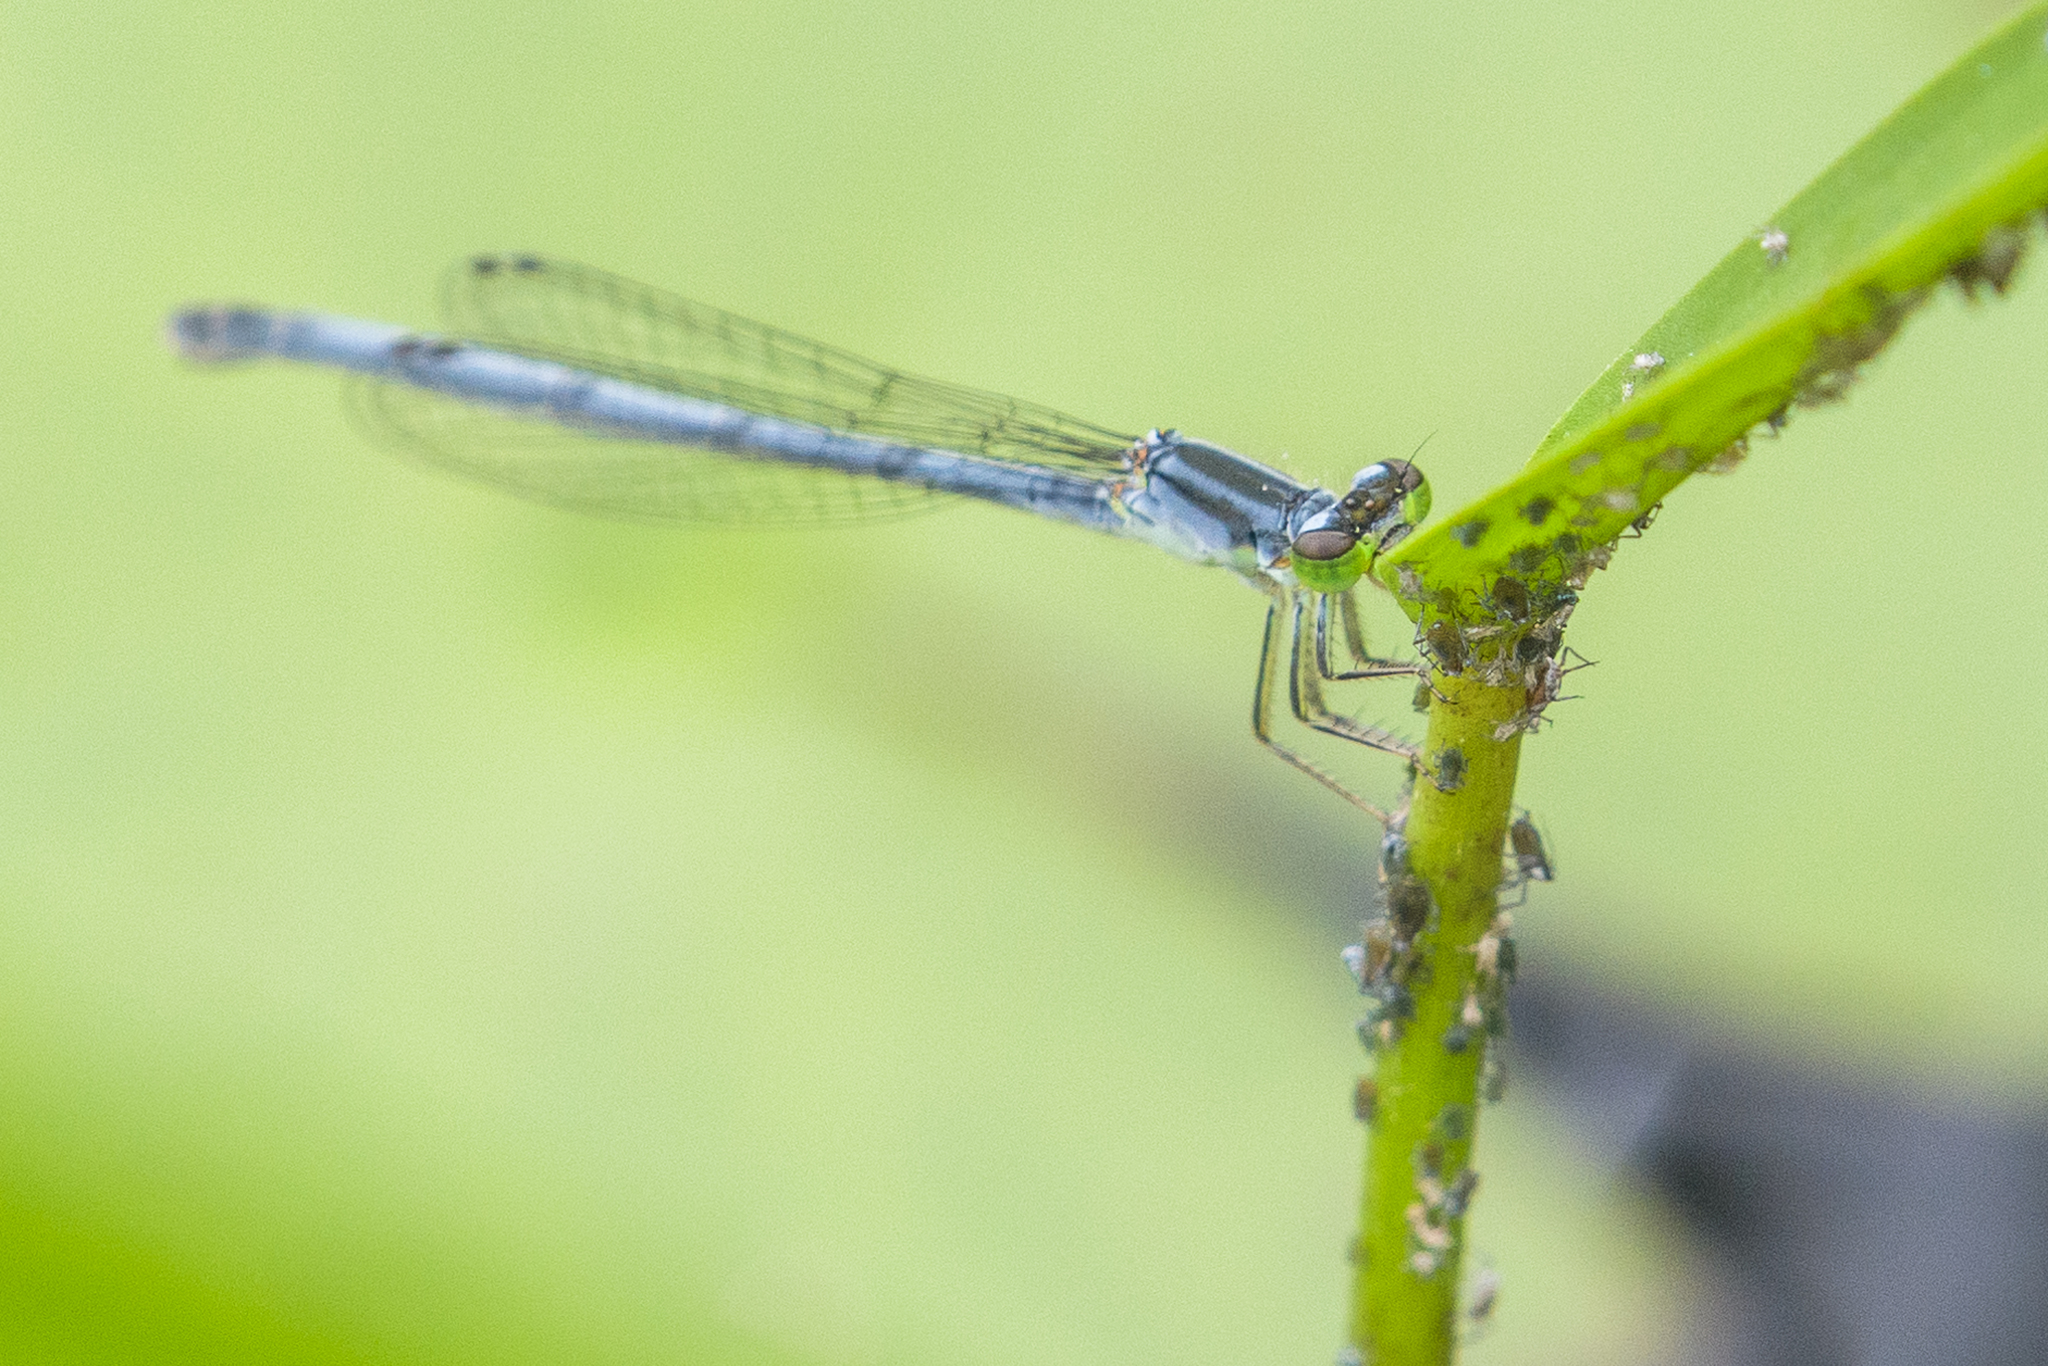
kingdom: Animalia
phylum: Arthropoda
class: Insecta
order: Odonata
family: Coenagrionidae
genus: Ischnura
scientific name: Ischnura verticalis
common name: Eastern forktail
